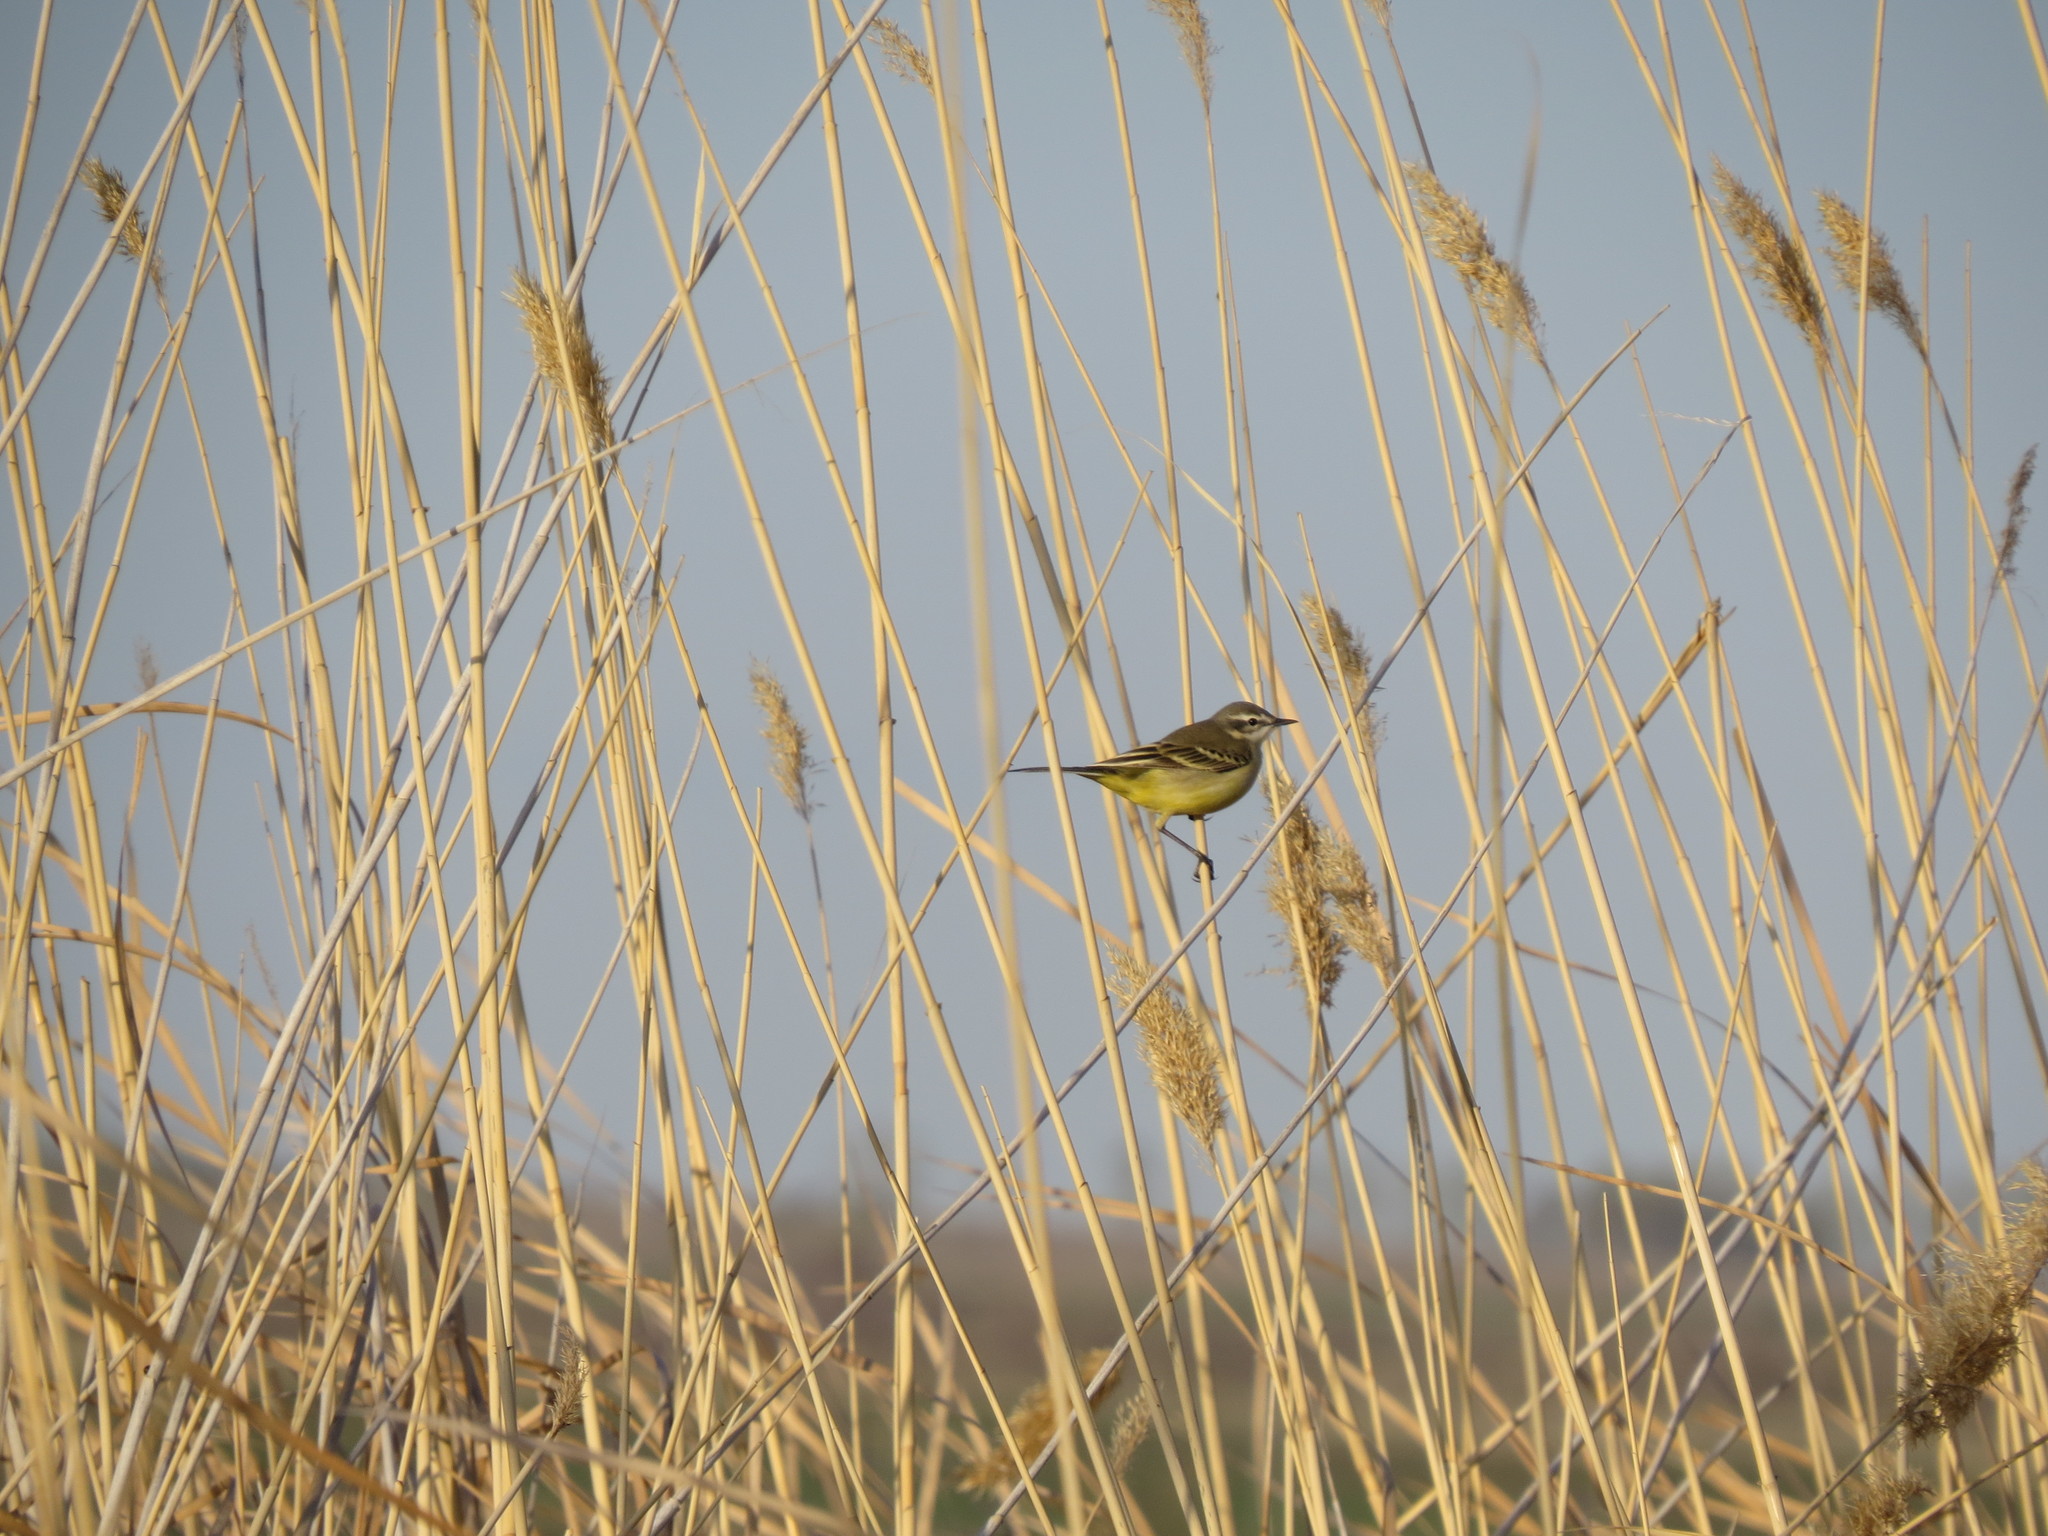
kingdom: Animalia
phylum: Chordata
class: Aves
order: Passeriformes
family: Motacillidae
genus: Motacilla
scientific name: Motacilla flava
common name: Western yellow wagtail
